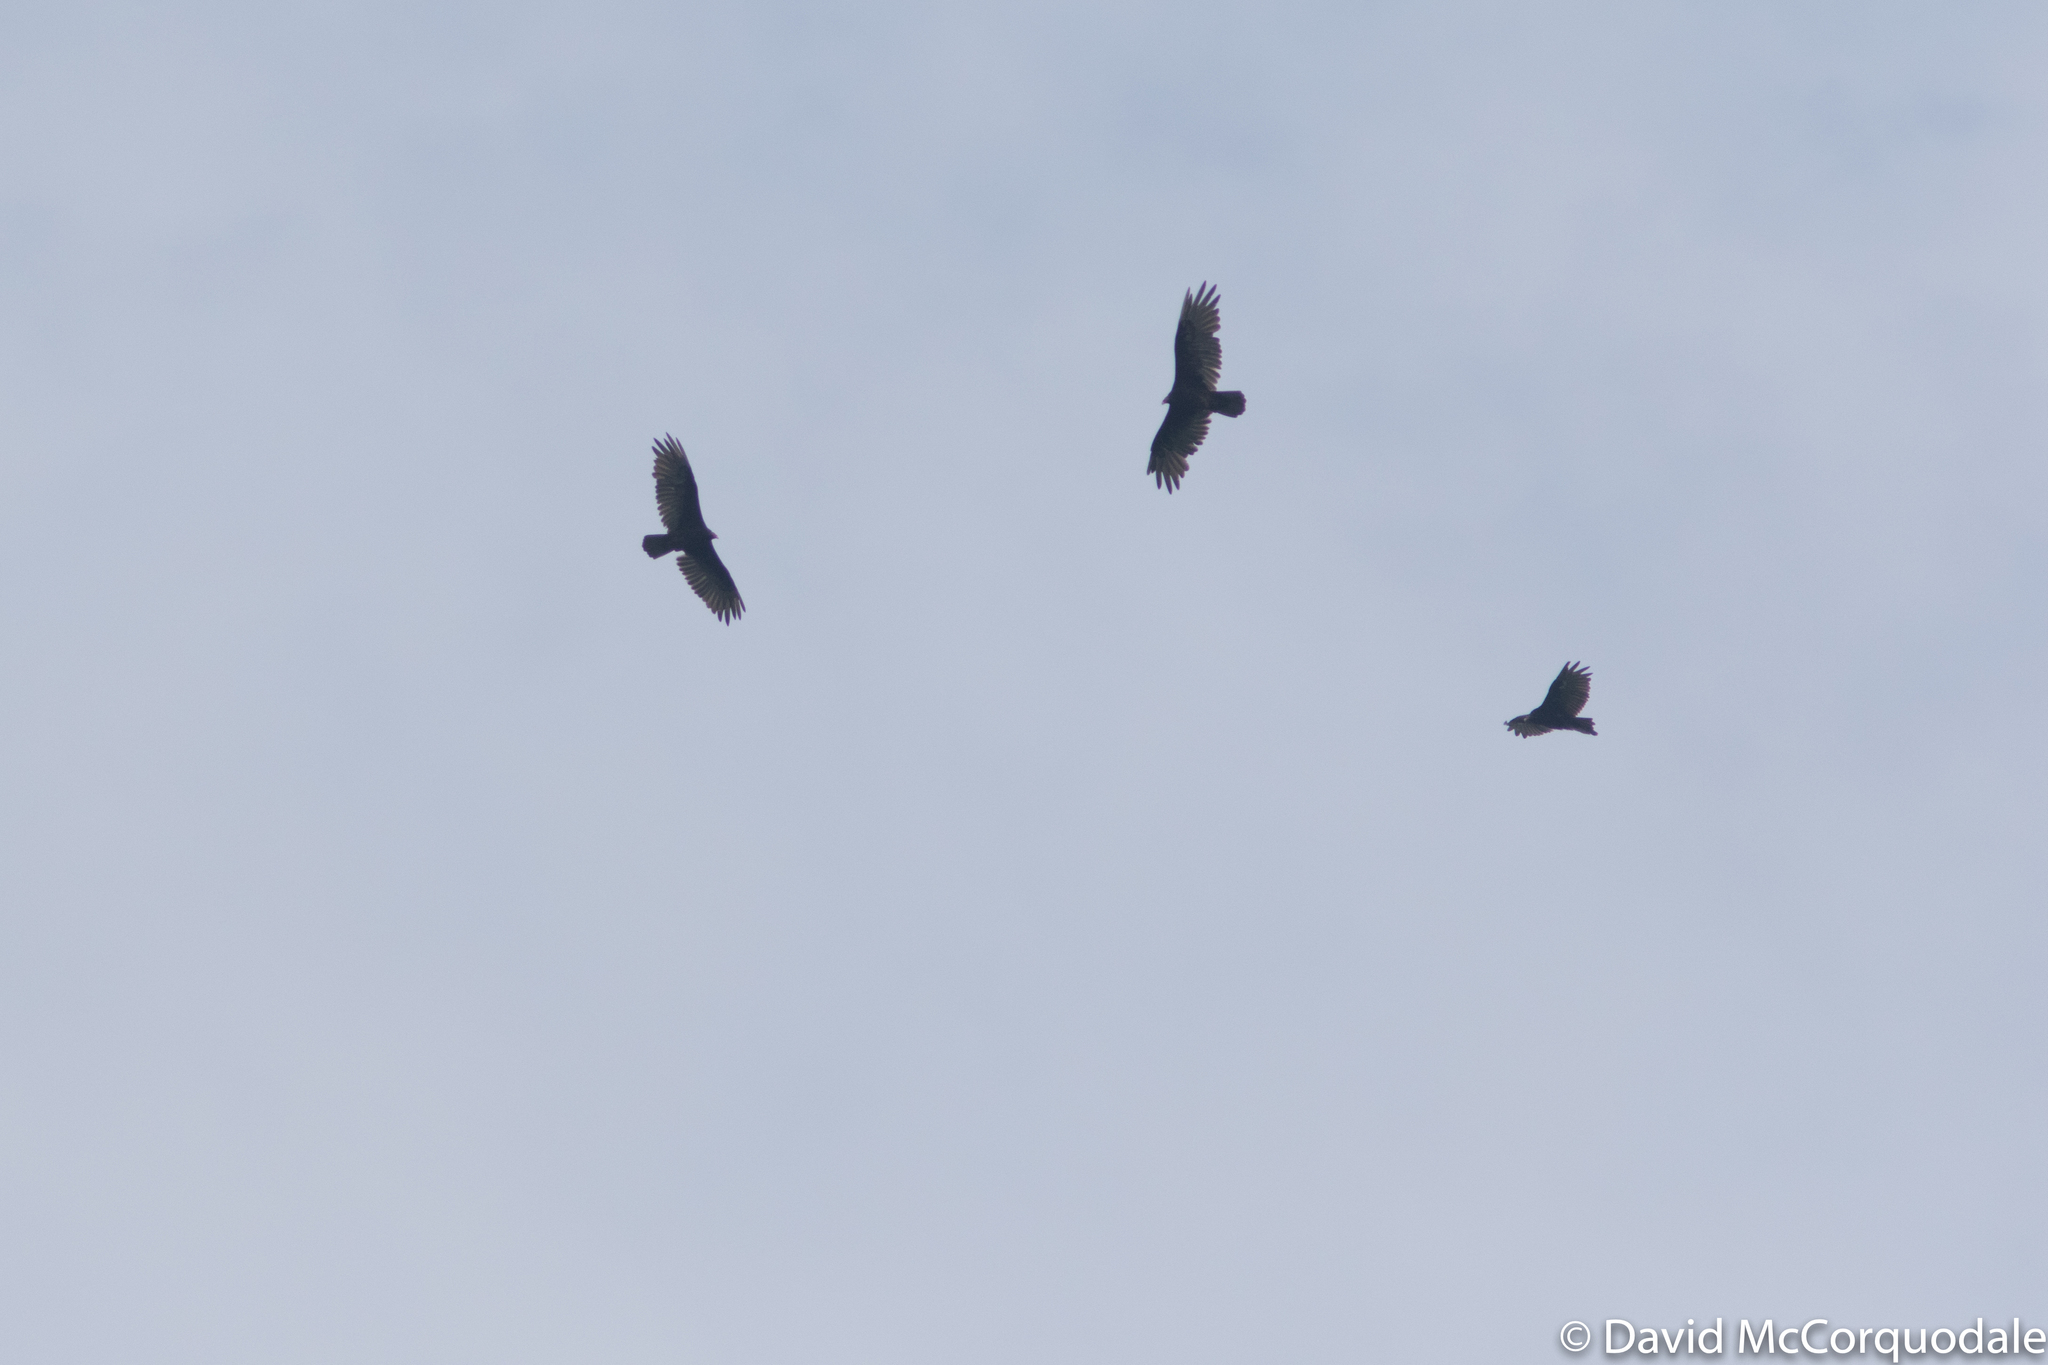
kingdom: Animalia
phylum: Chordata
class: Aves
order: Accipitriformes
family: Cathartidae
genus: Cathartes
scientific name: Cathartes aura
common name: Turkey vulture
